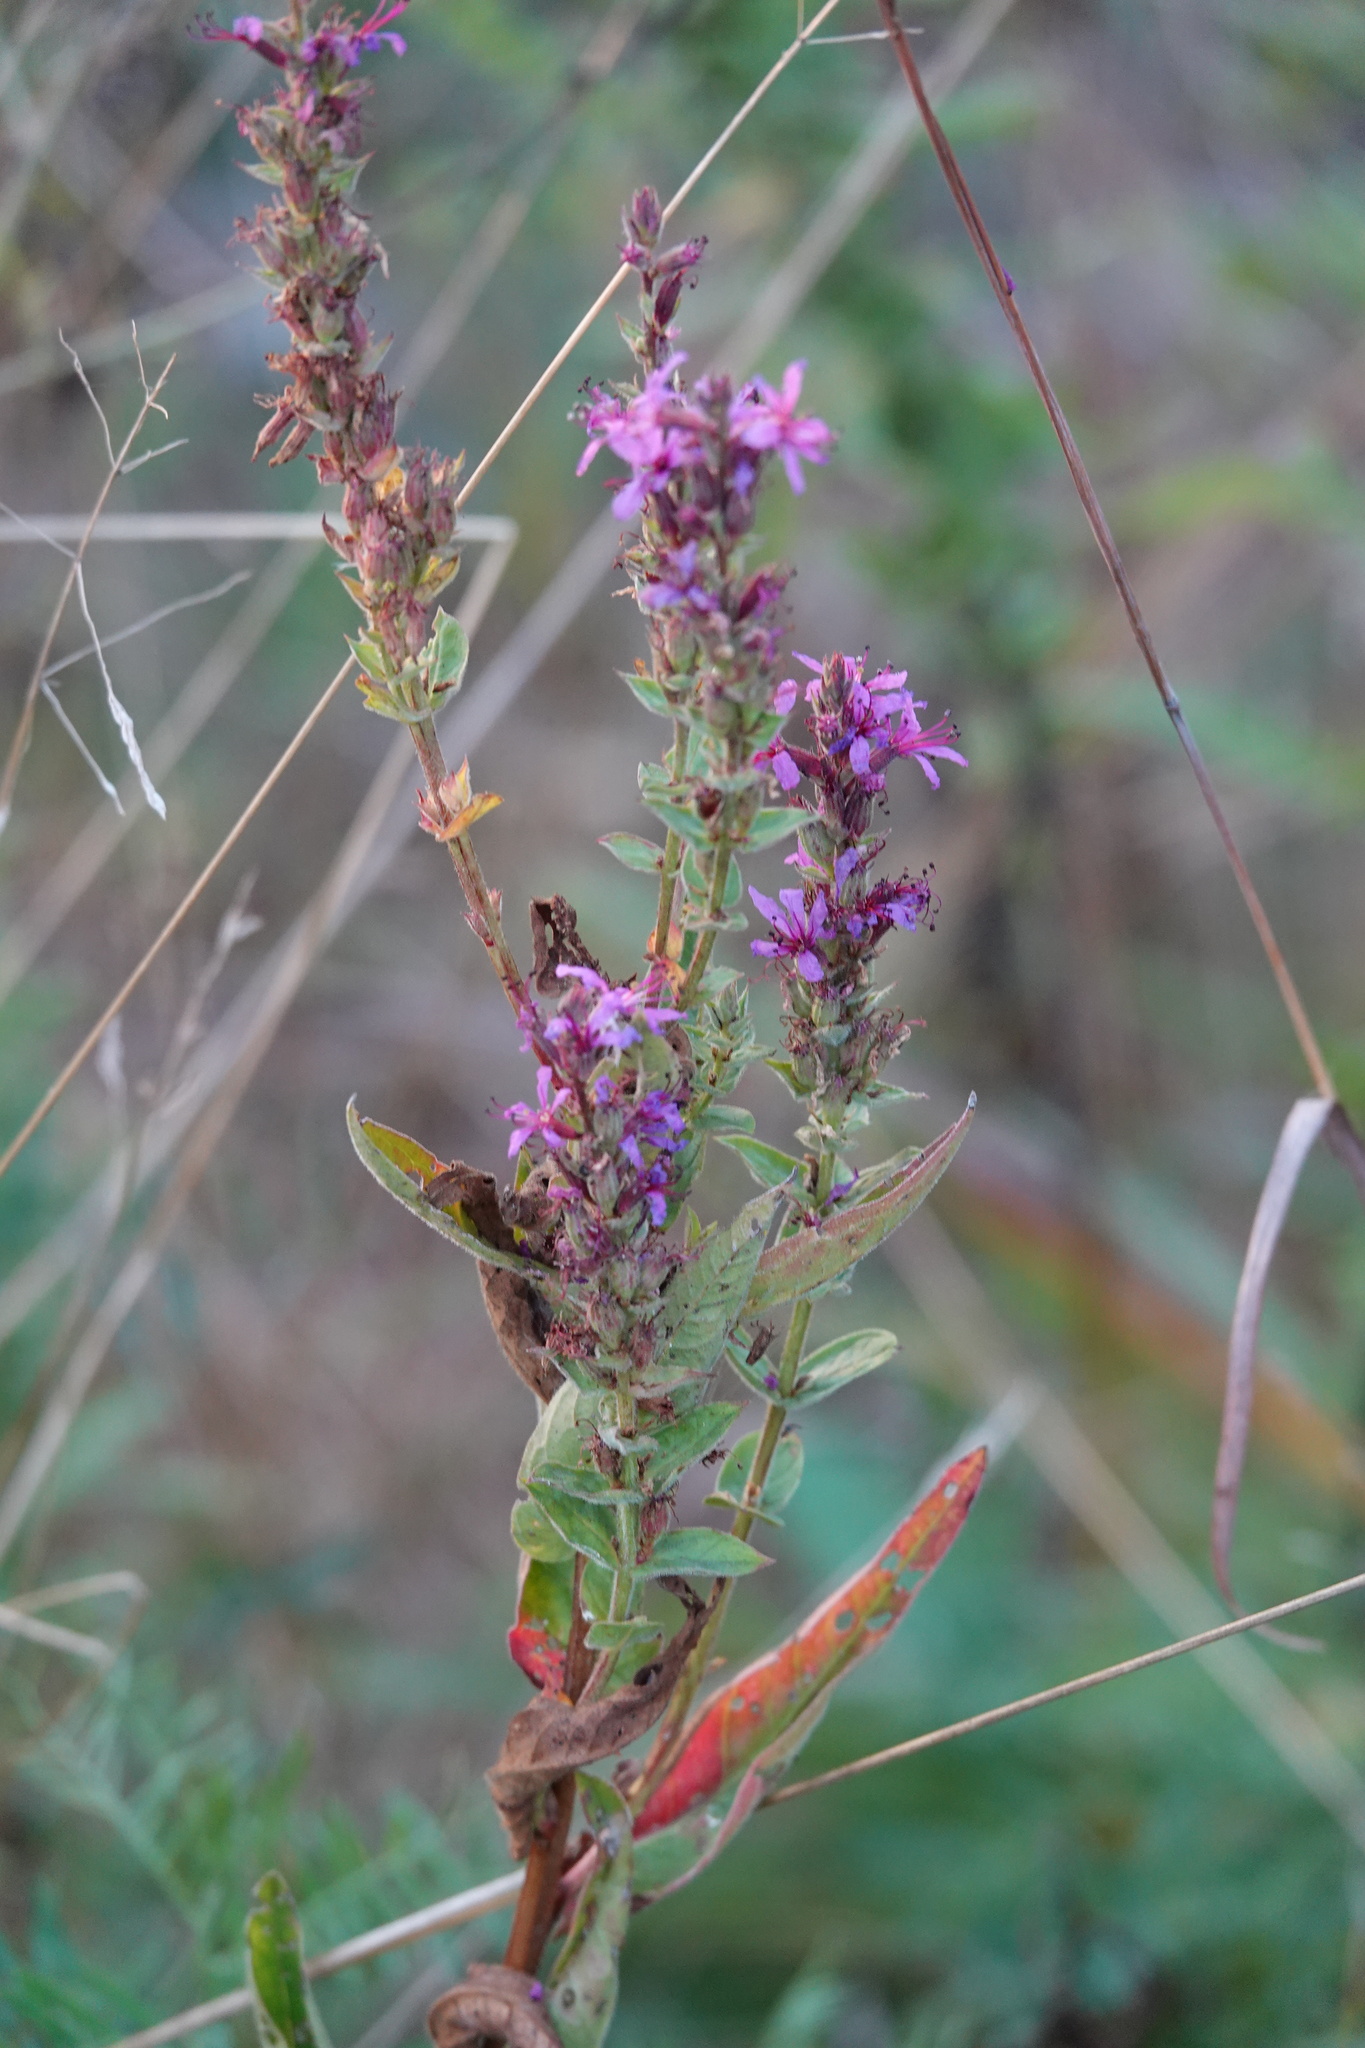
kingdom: Plantae
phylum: Tracheophyta
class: Magnoliopsida
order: Myrtales
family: Lythraceae
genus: Lythrum
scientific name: Lythrum salicaria
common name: Purple loosestrife
